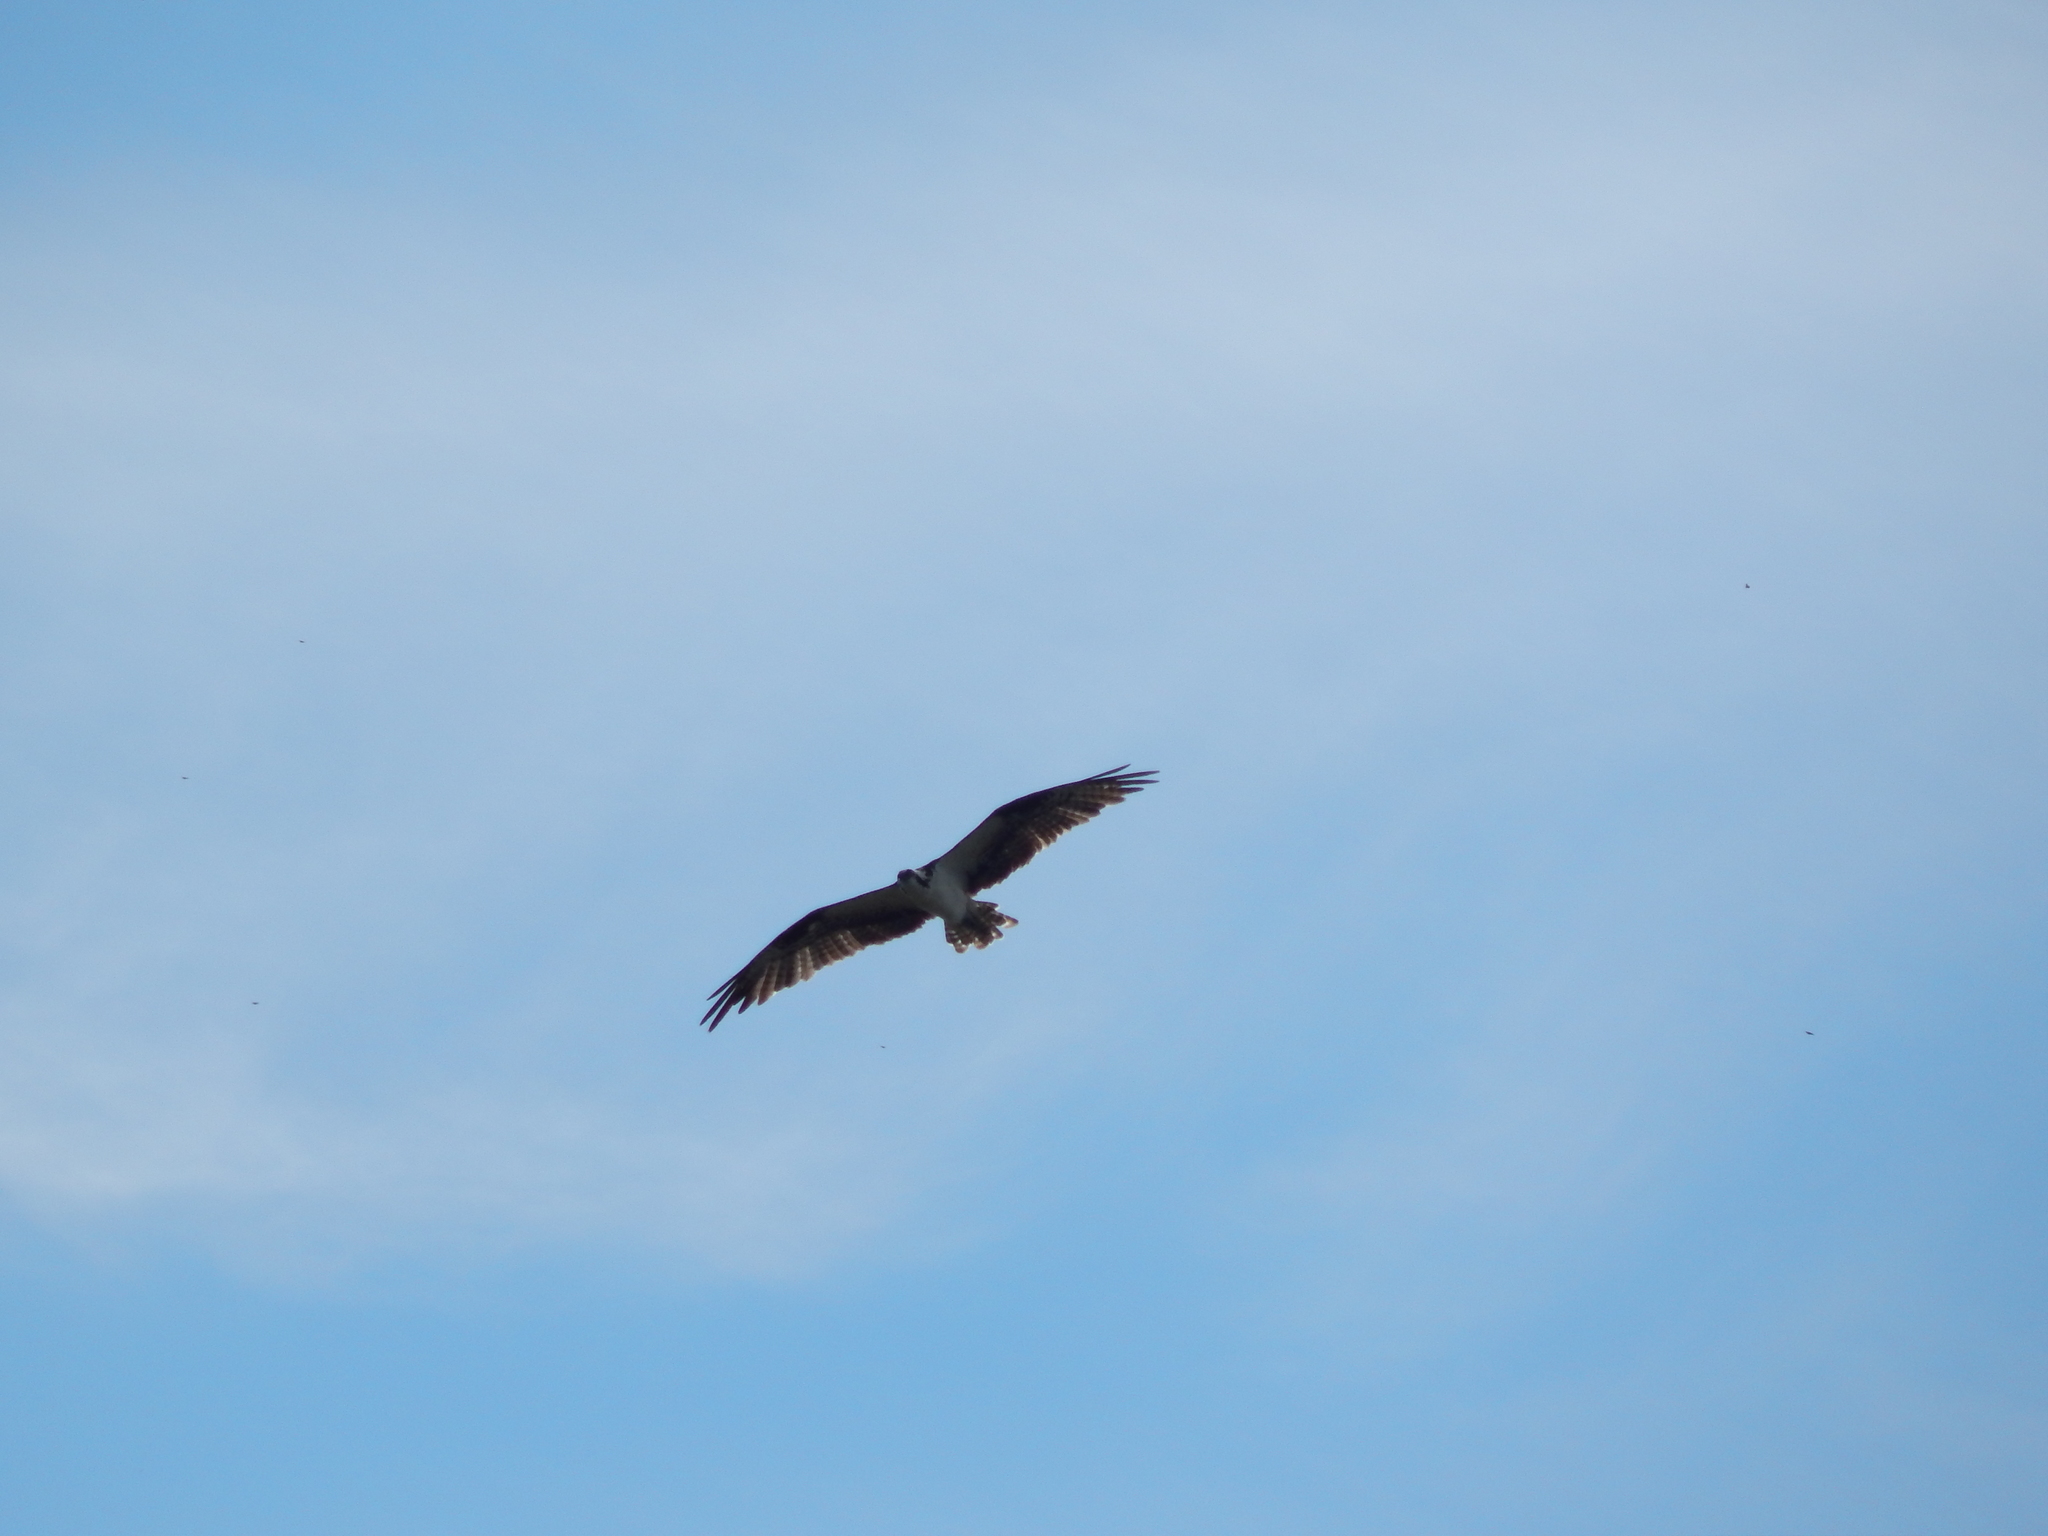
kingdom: Animalia
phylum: Chordata
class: Aves
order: Accipitriformes
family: Pandionidae
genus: Pandion
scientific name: Pandion haliaetus
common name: Osprey
